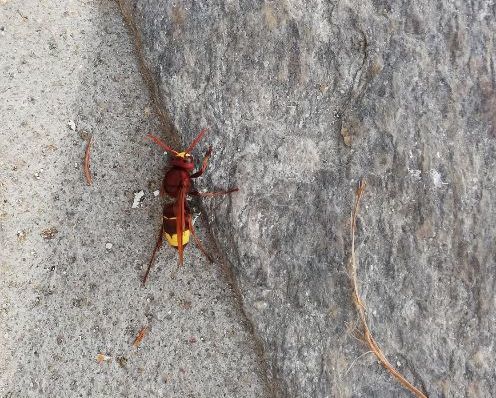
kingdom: Animalia
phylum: Arthropoda
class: Insecta
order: Hymenoptera
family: Vespidae
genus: Vespa
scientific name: Vespa orientalis
